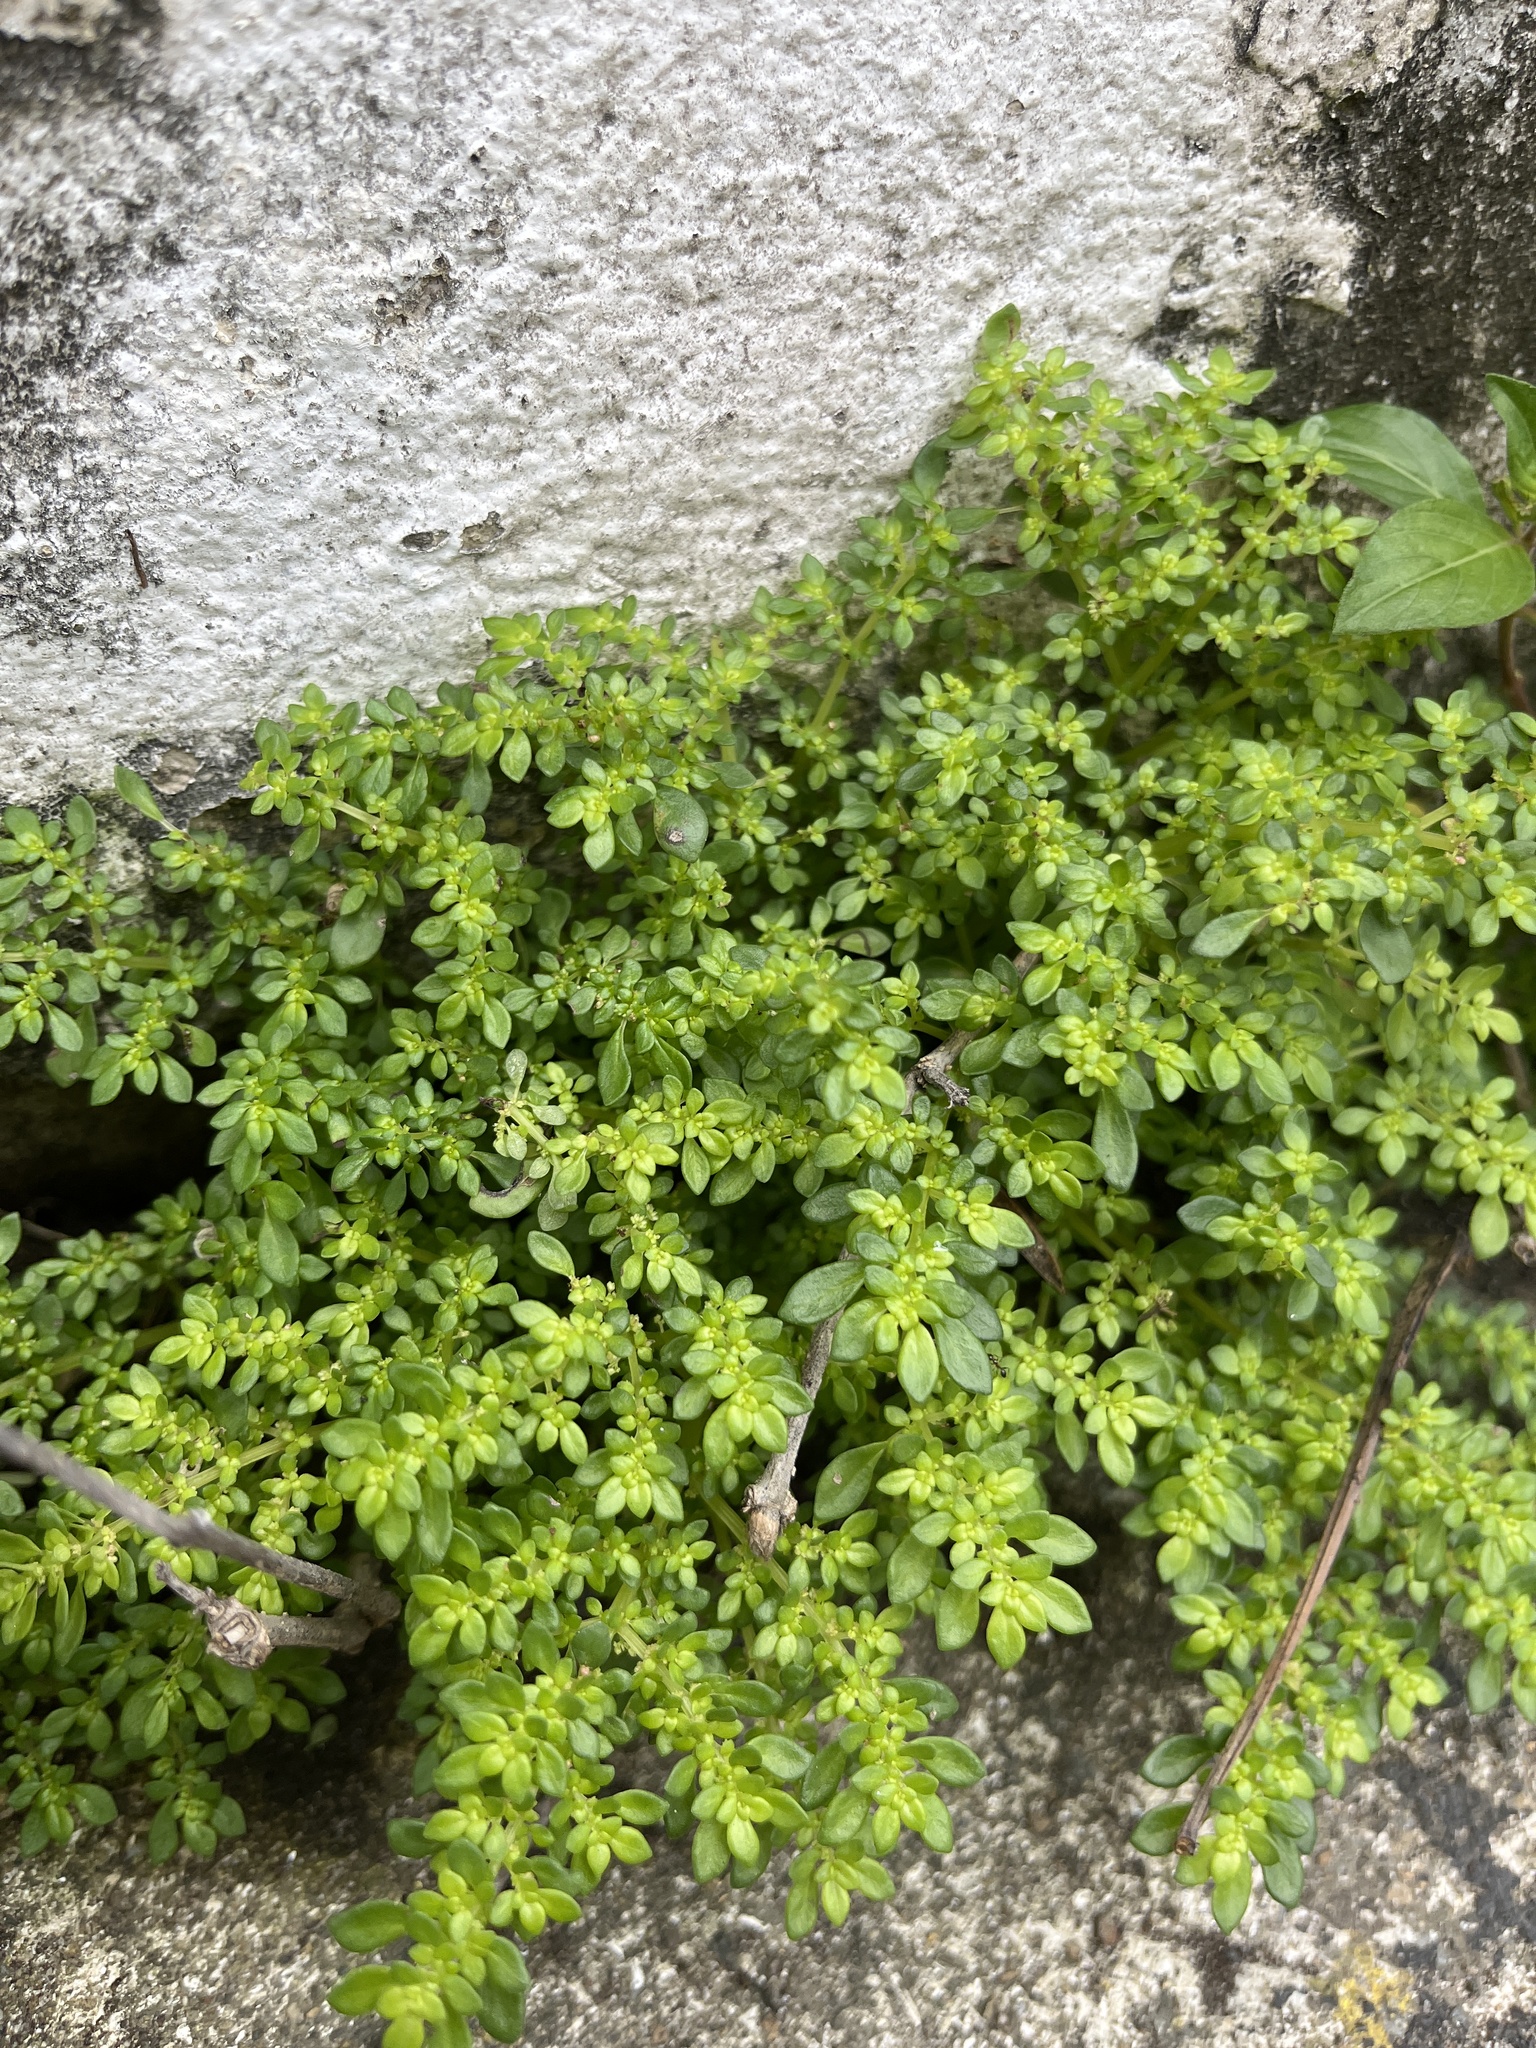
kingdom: Plantae
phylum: Tracheophyta
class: Magnoliopsida
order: Rosales
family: Urticaceae
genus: Pilea
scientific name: Pilea microphylla
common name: Artillery-plant
